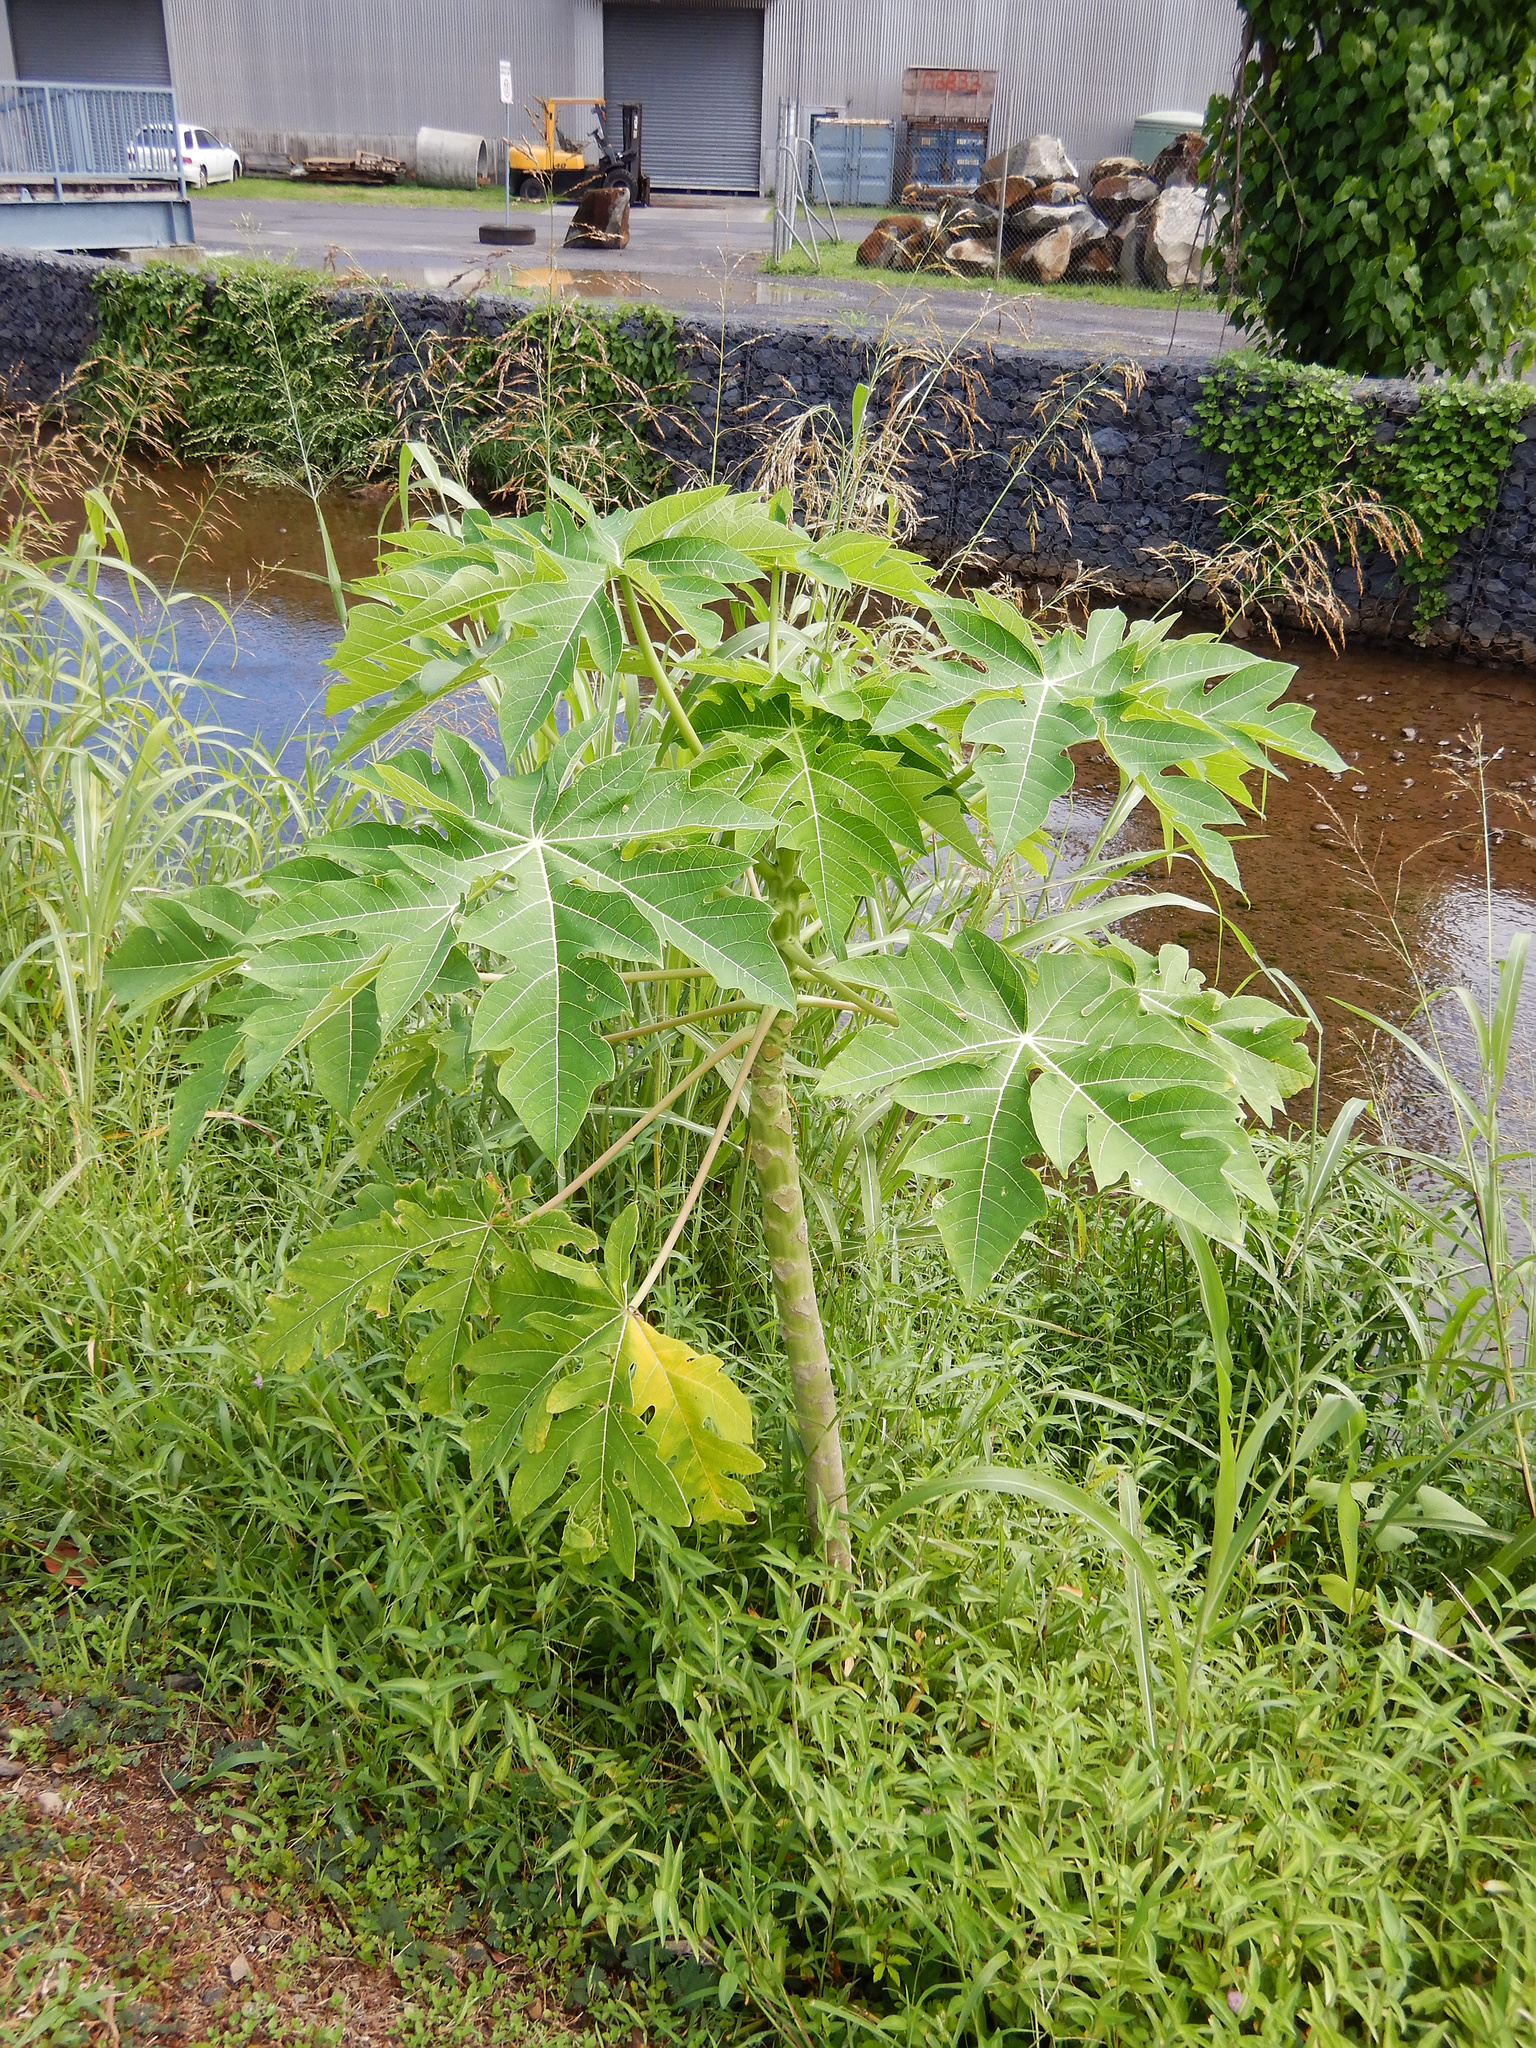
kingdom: Plantae
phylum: Tracheophyta
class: Magnoliopsida
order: Brassicales
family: Caricaceae
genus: Carica
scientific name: Carica papaya
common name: Papaya
